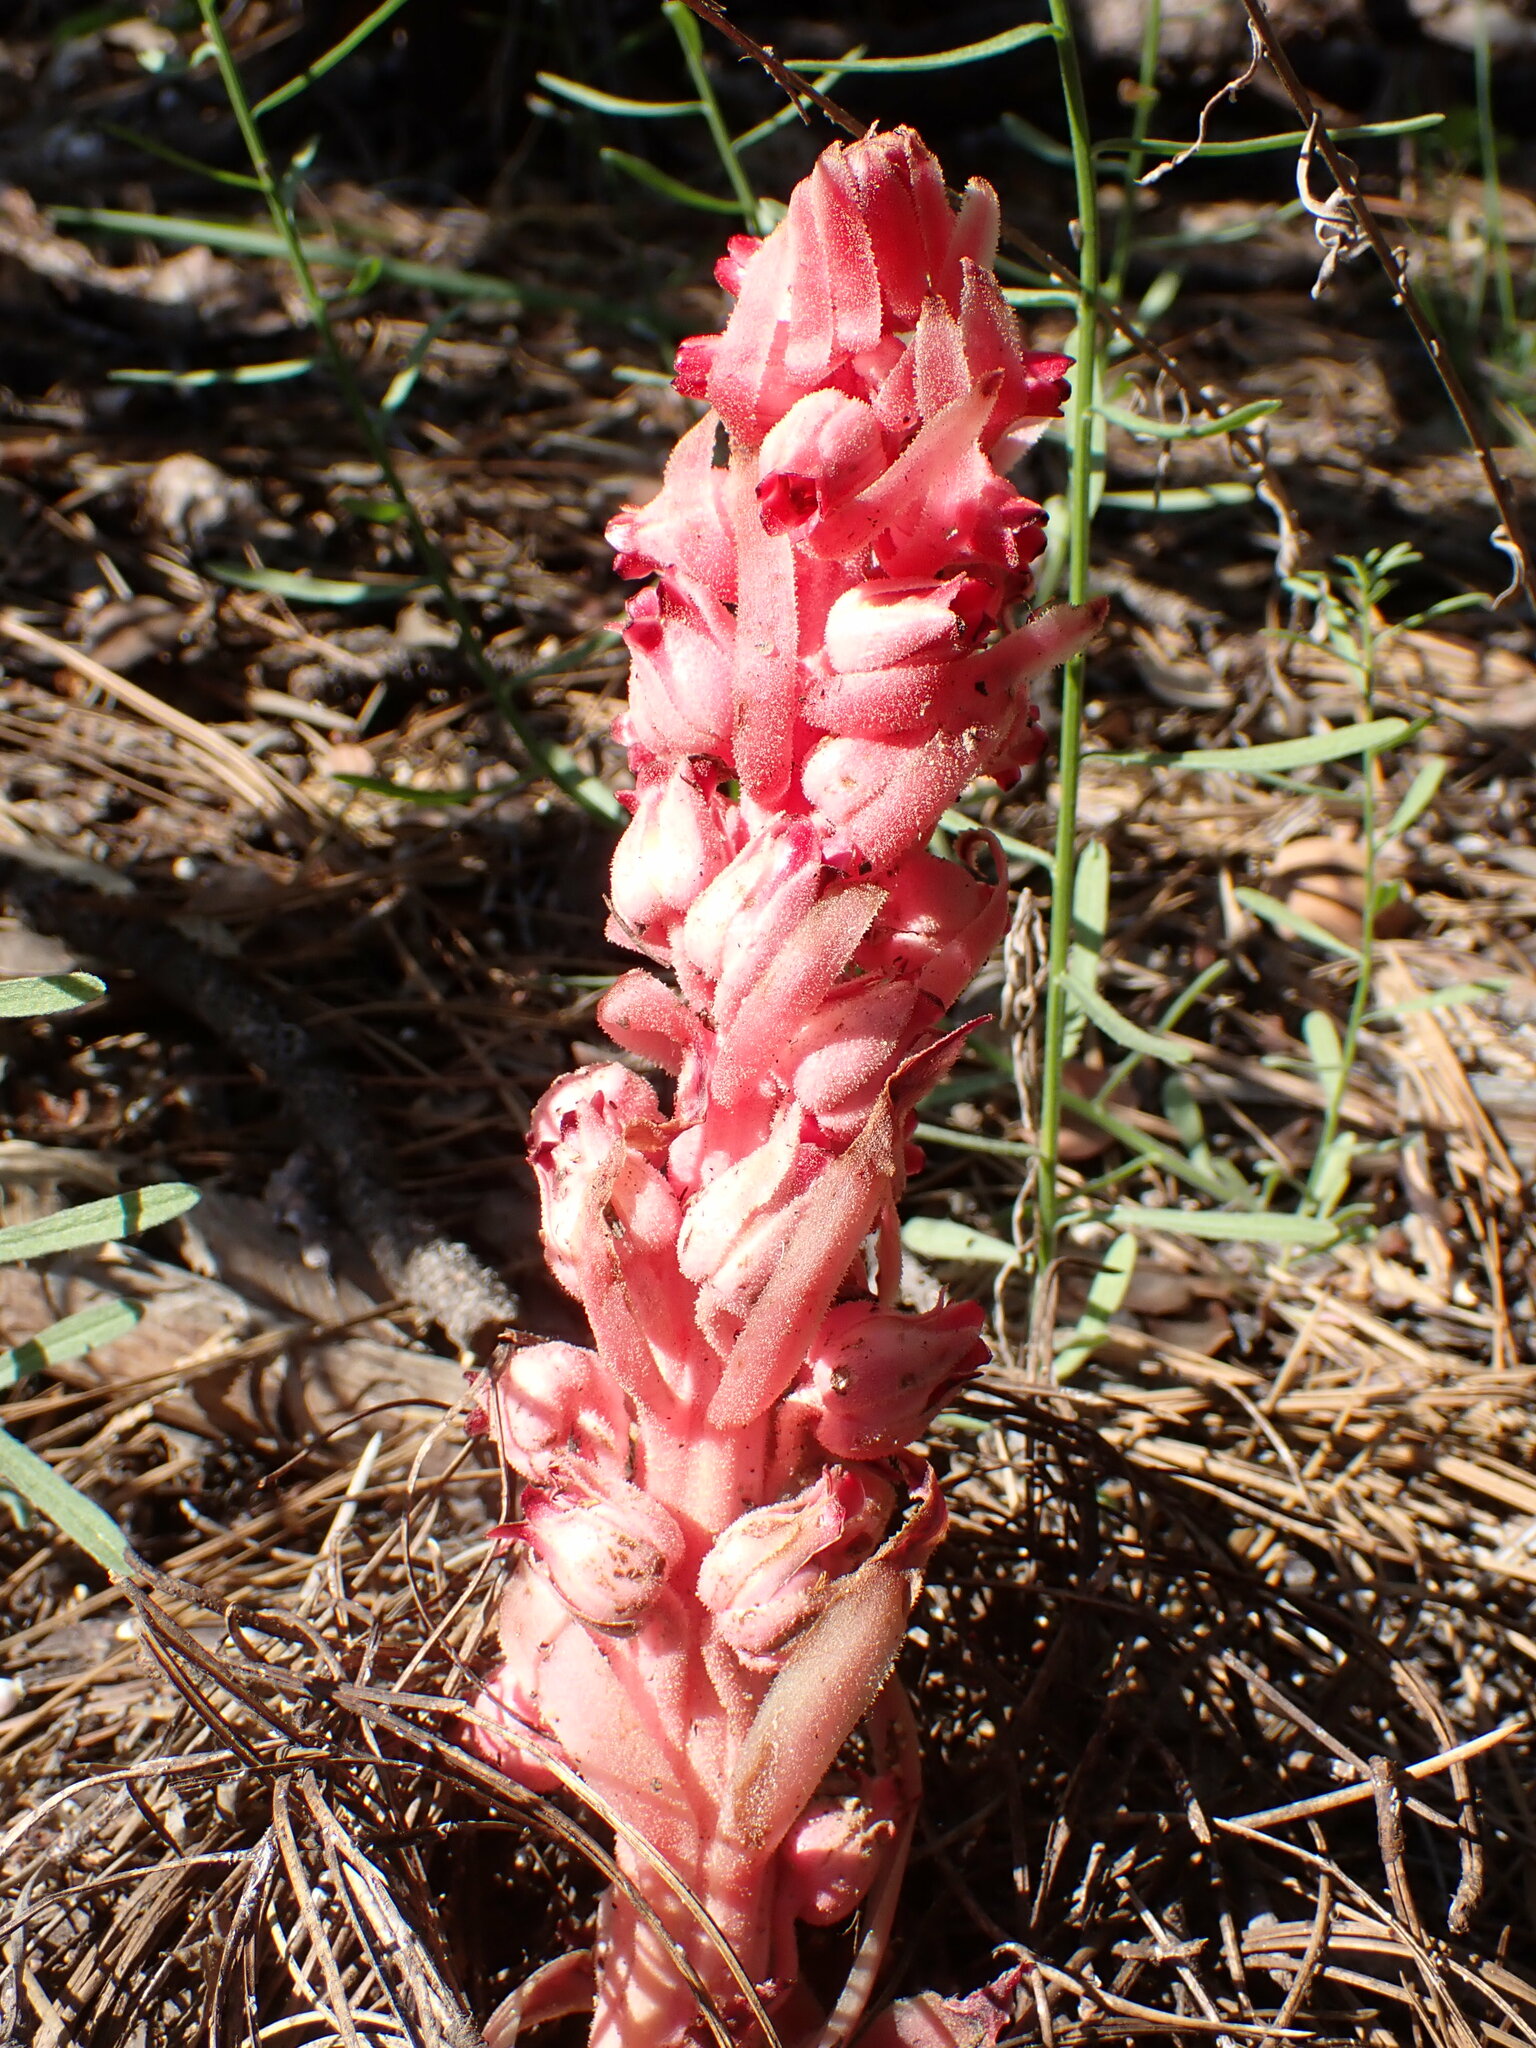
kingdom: Plantae
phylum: Tracheophyta
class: Magnoliopsida
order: Ericales
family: Ericaceae
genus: Sarcodes
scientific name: Sarcodes sanguinea
